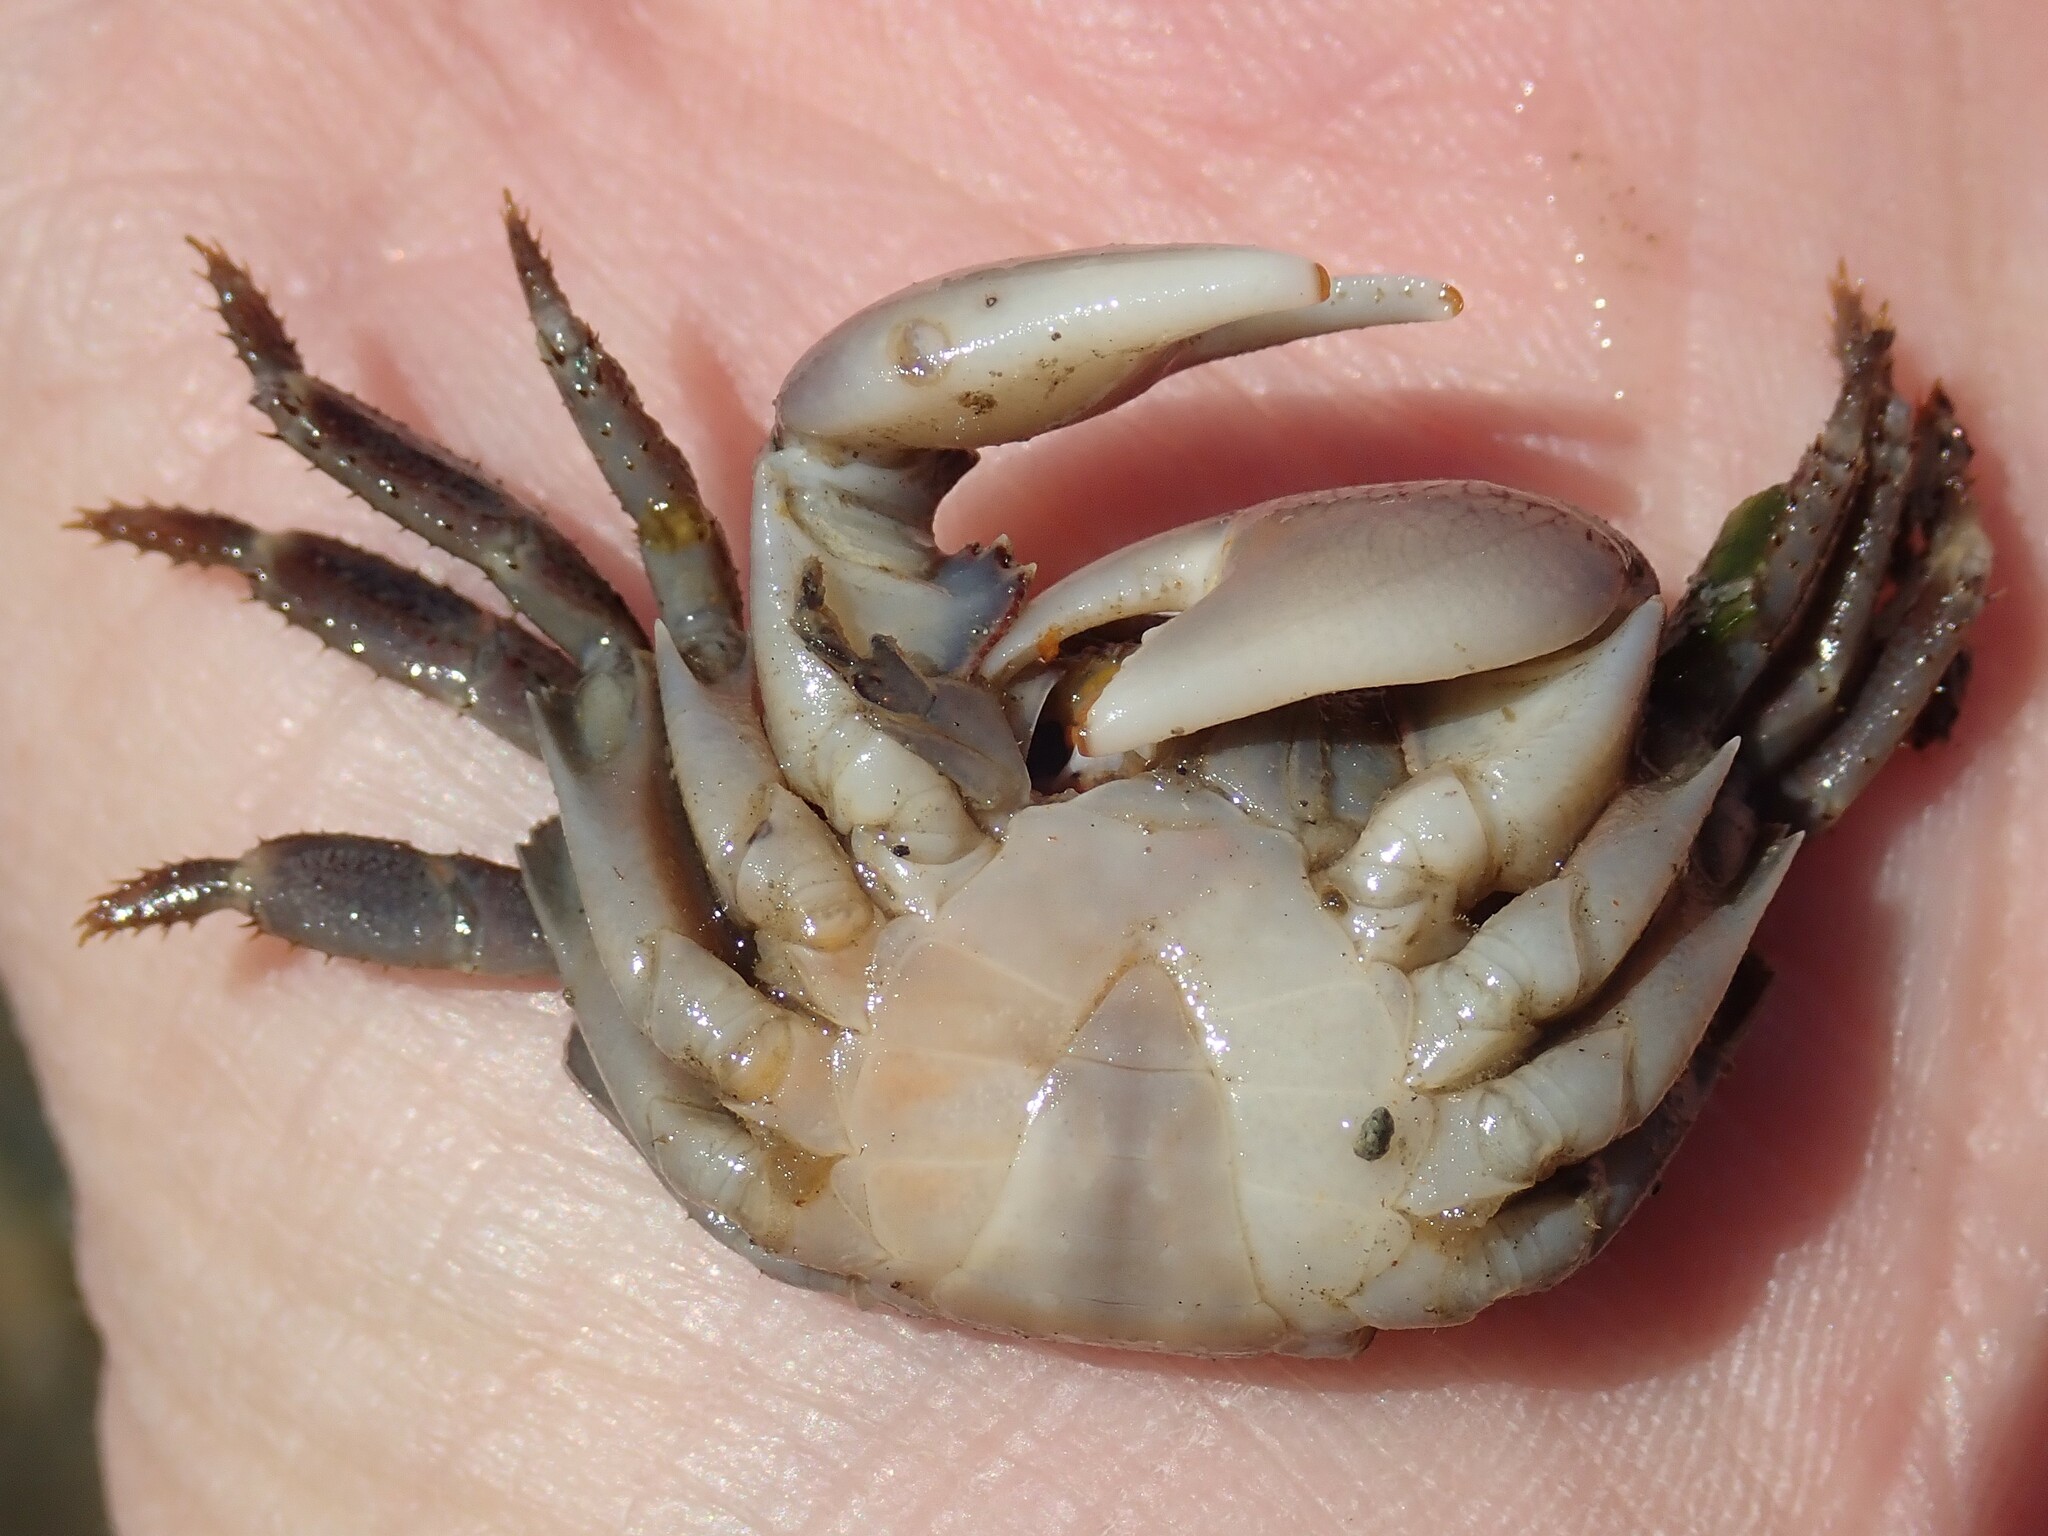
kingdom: Animalia
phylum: Arthropoda
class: Malacostraca
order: Decapoda
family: Grapsidae
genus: Pachygrapsus
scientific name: Pachygrapsus crassipes
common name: Striped shore crab
